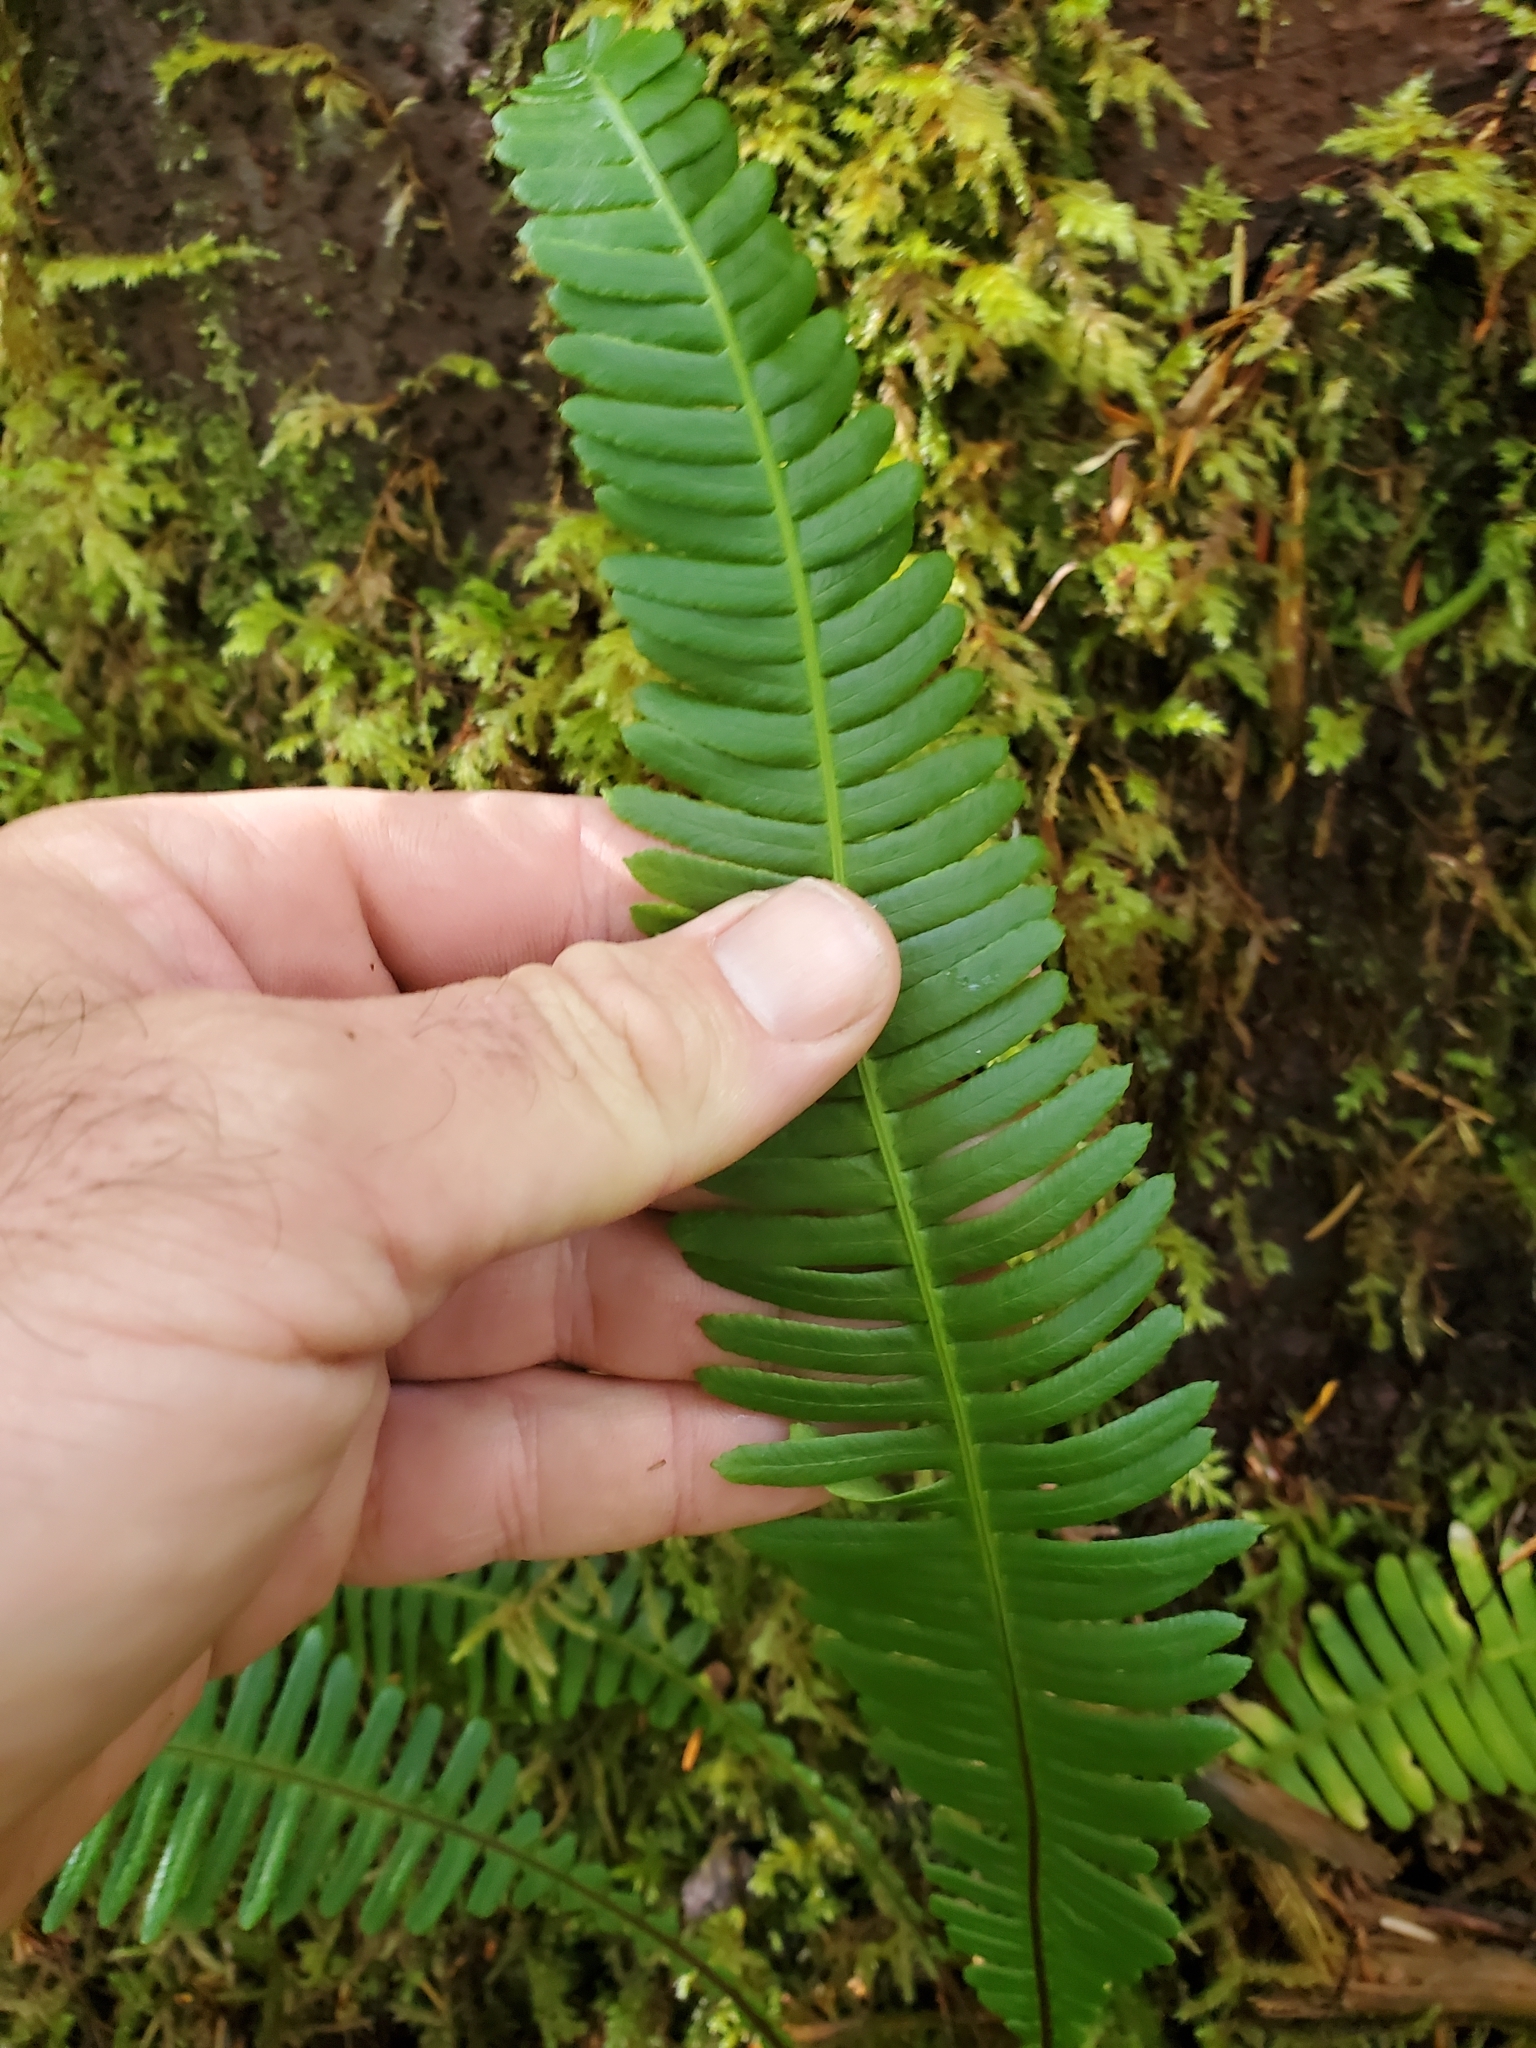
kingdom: Plantae
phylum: Tracheophyta
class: Polypodiopsida
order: Polypodiales
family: Blechnaceae
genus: Struthiopteris
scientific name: Struthiopteris spicant
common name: Deer fern
